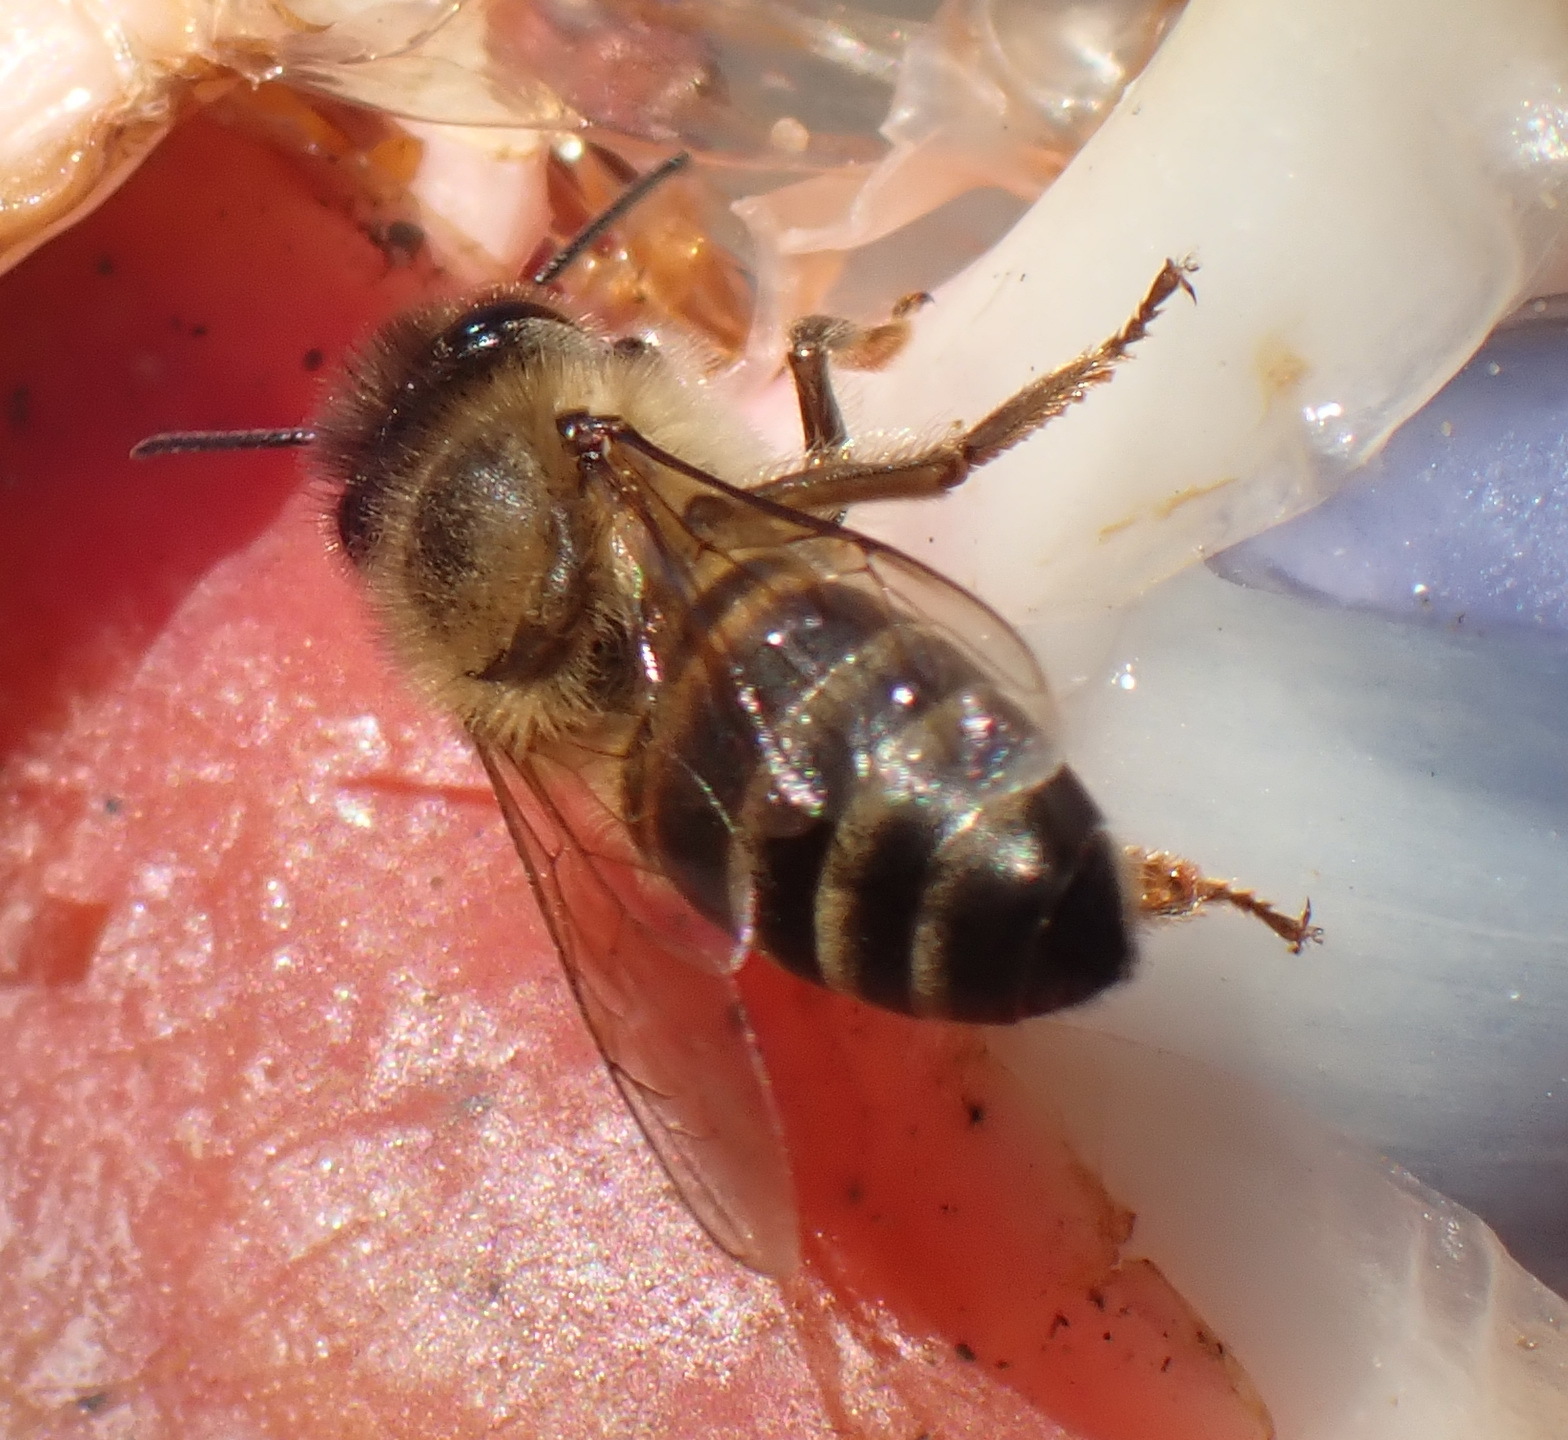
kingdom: Animalia
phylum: Arthropoda
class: Insecta
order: Hymenoptera
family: Apidae
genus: Apis
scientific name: Apis mellifera
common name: Honey bee
